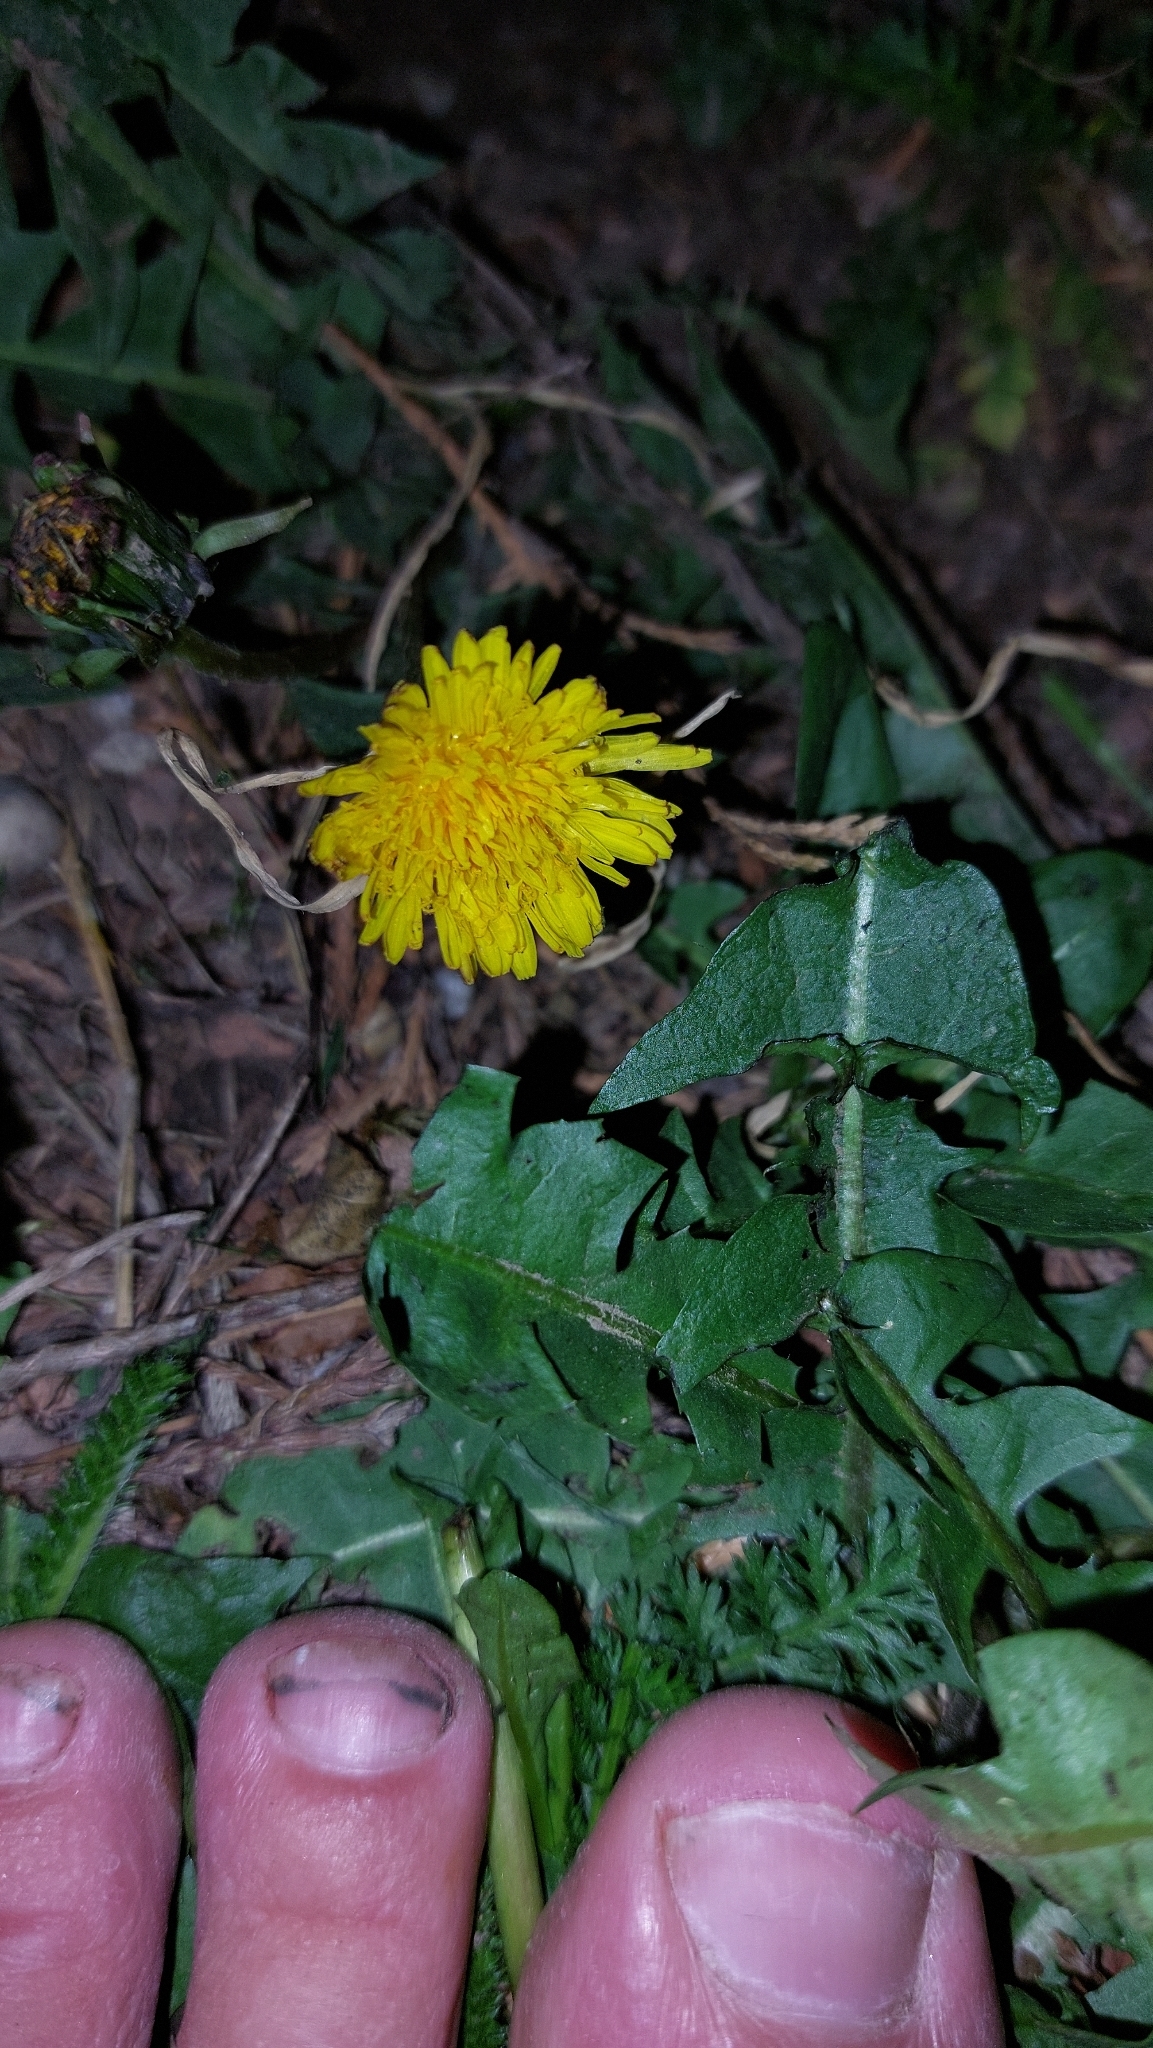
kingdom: Plantae
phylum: Tracheophyta
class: Magnoliopsida
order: Asterales
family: Asteraceae
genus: Taraxacum
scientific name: Taraxacum
